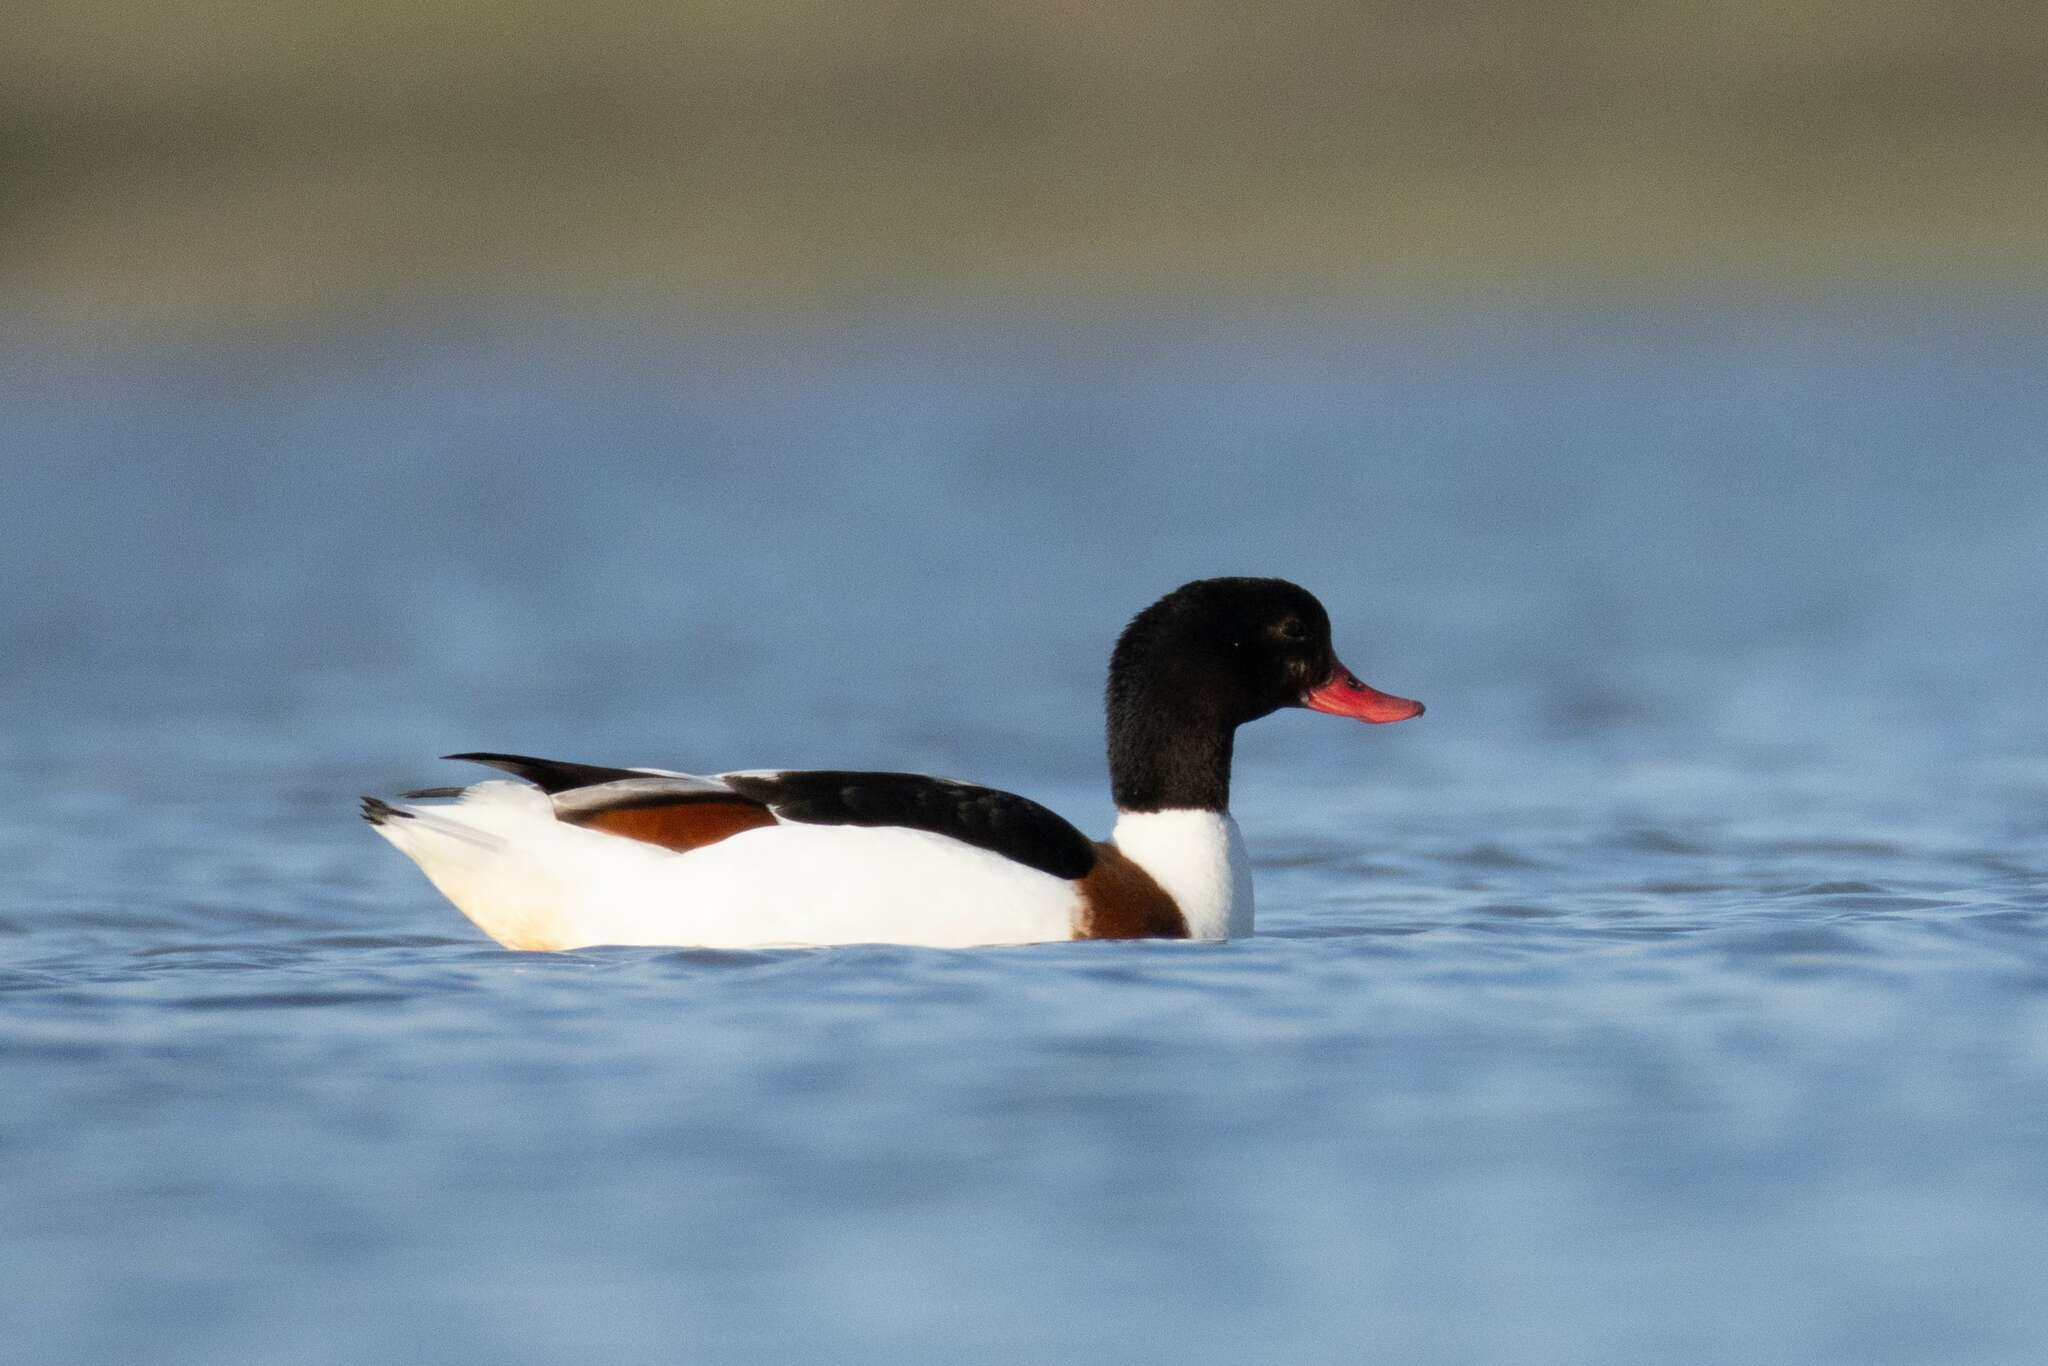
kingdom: Animalia
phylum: Chordata
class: Aves
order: Anseriformes
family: Anatidae
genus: Tadorna
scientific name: Tadorna tadorna
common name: Common shelduck
